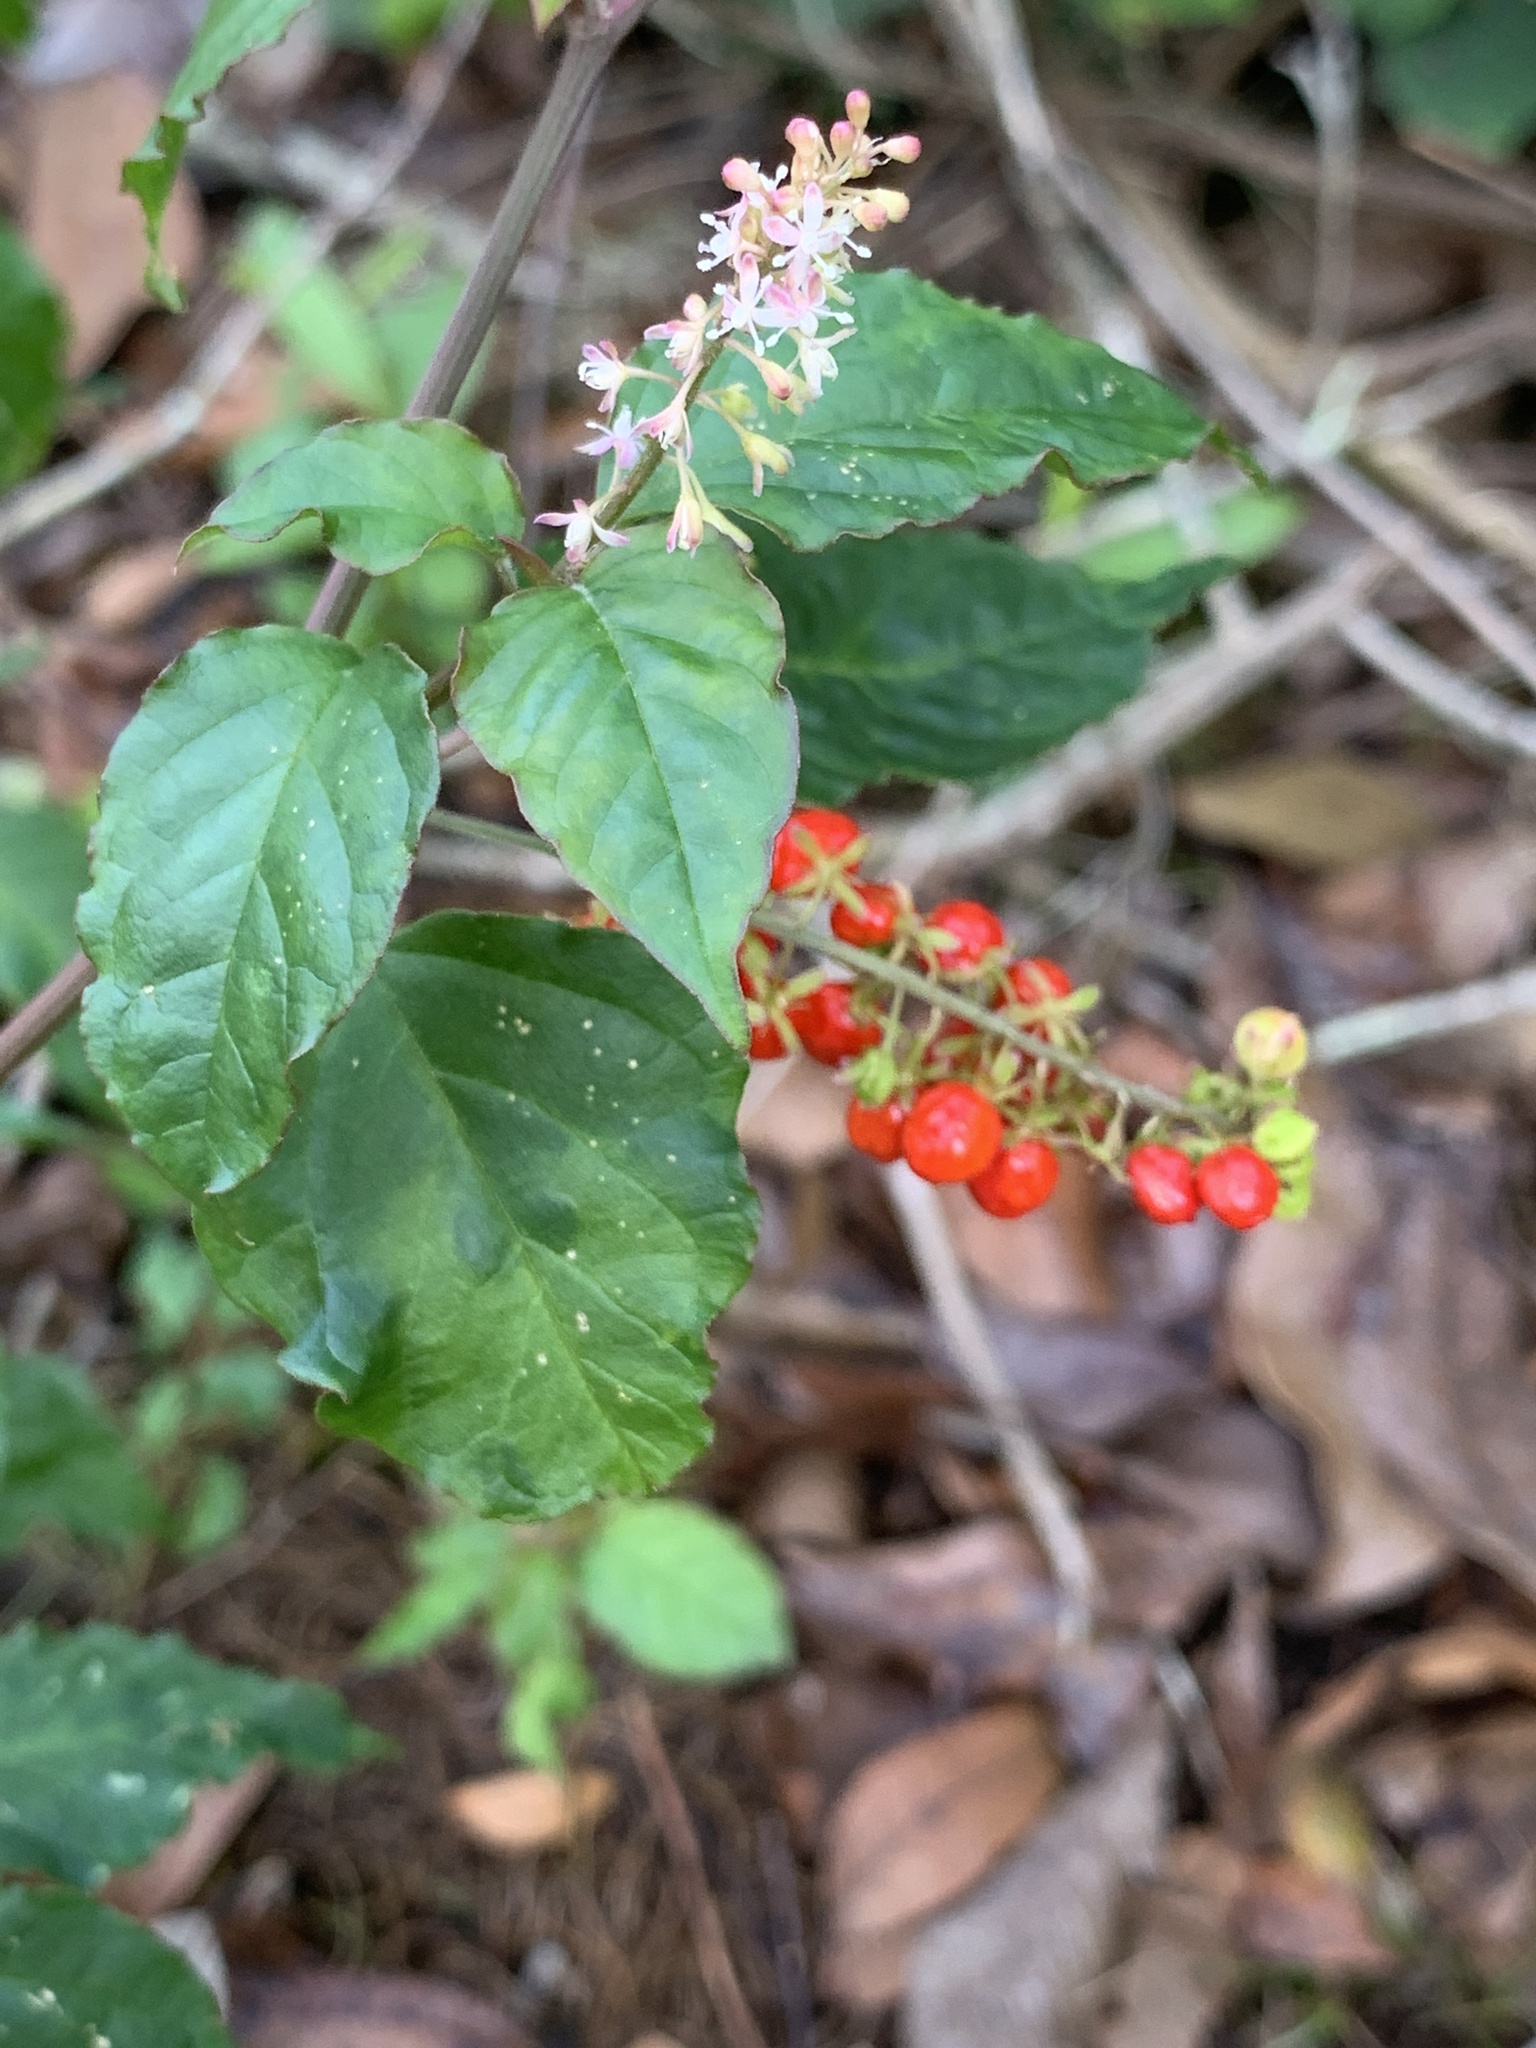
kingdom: Plantae
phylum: Tracheophyta
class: Magnoliopsida
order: Caryophyllales
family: Phytolaccaceae
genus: Rivina
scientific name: Rivina humilis
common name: Rougeplant
